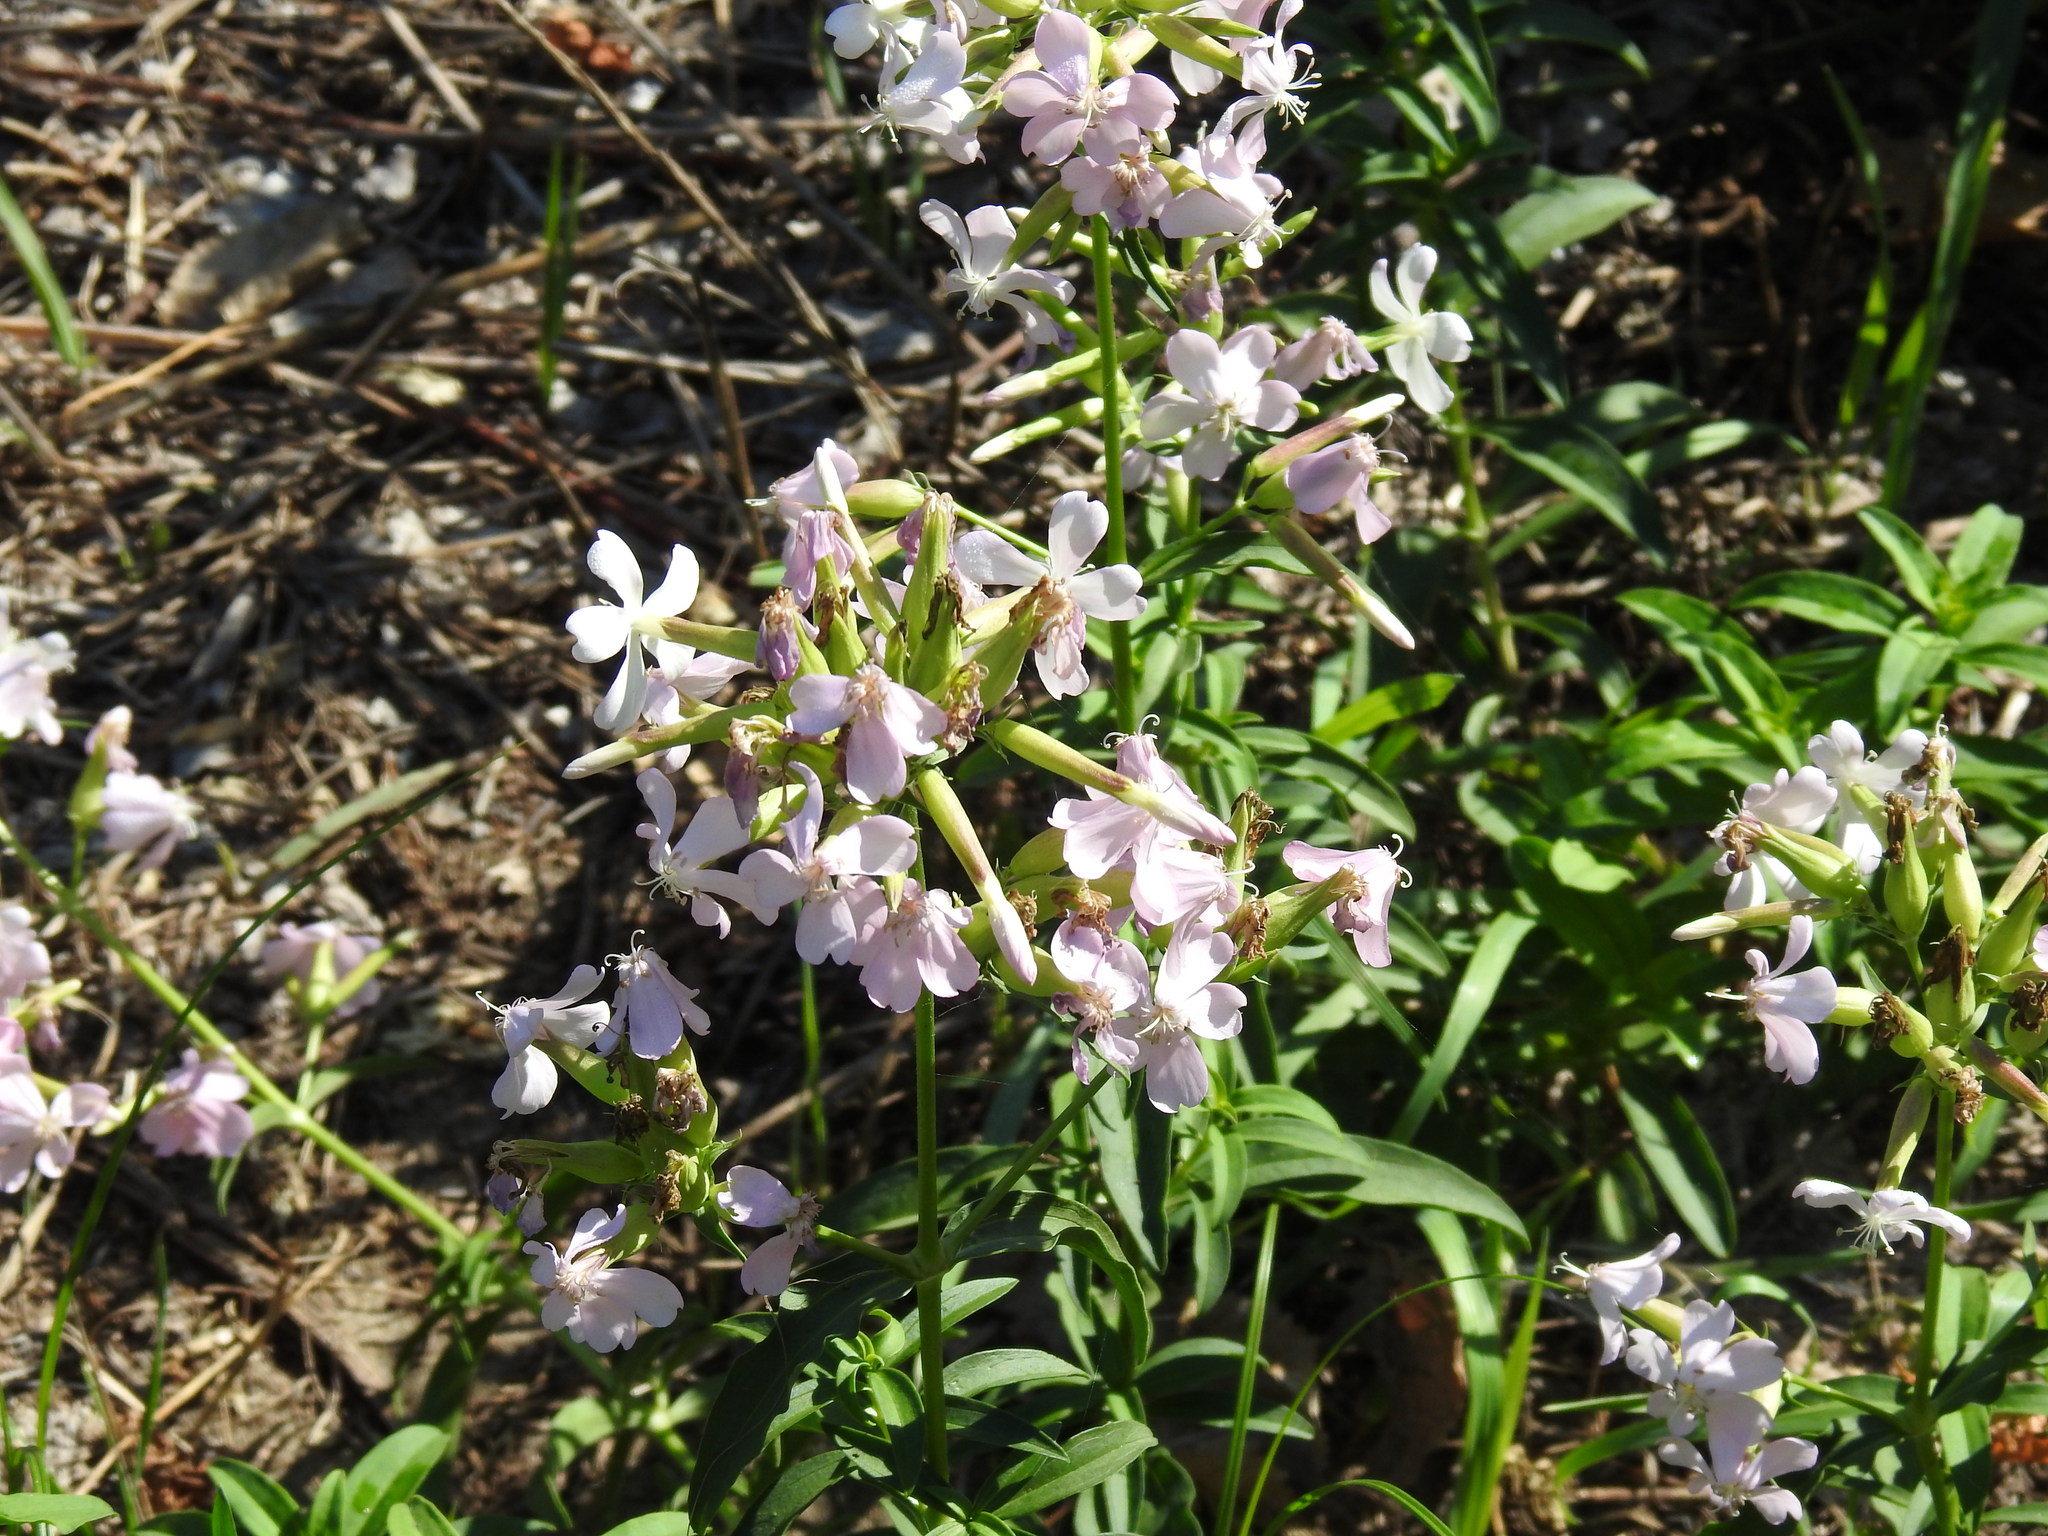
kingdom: Plantae
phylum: Tracheophyta
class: Magnoliopsida
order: Caryophyllales
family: Caryophyllaceae
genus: Saponaria
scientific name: Saponaria officinalis
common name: Soapwort
